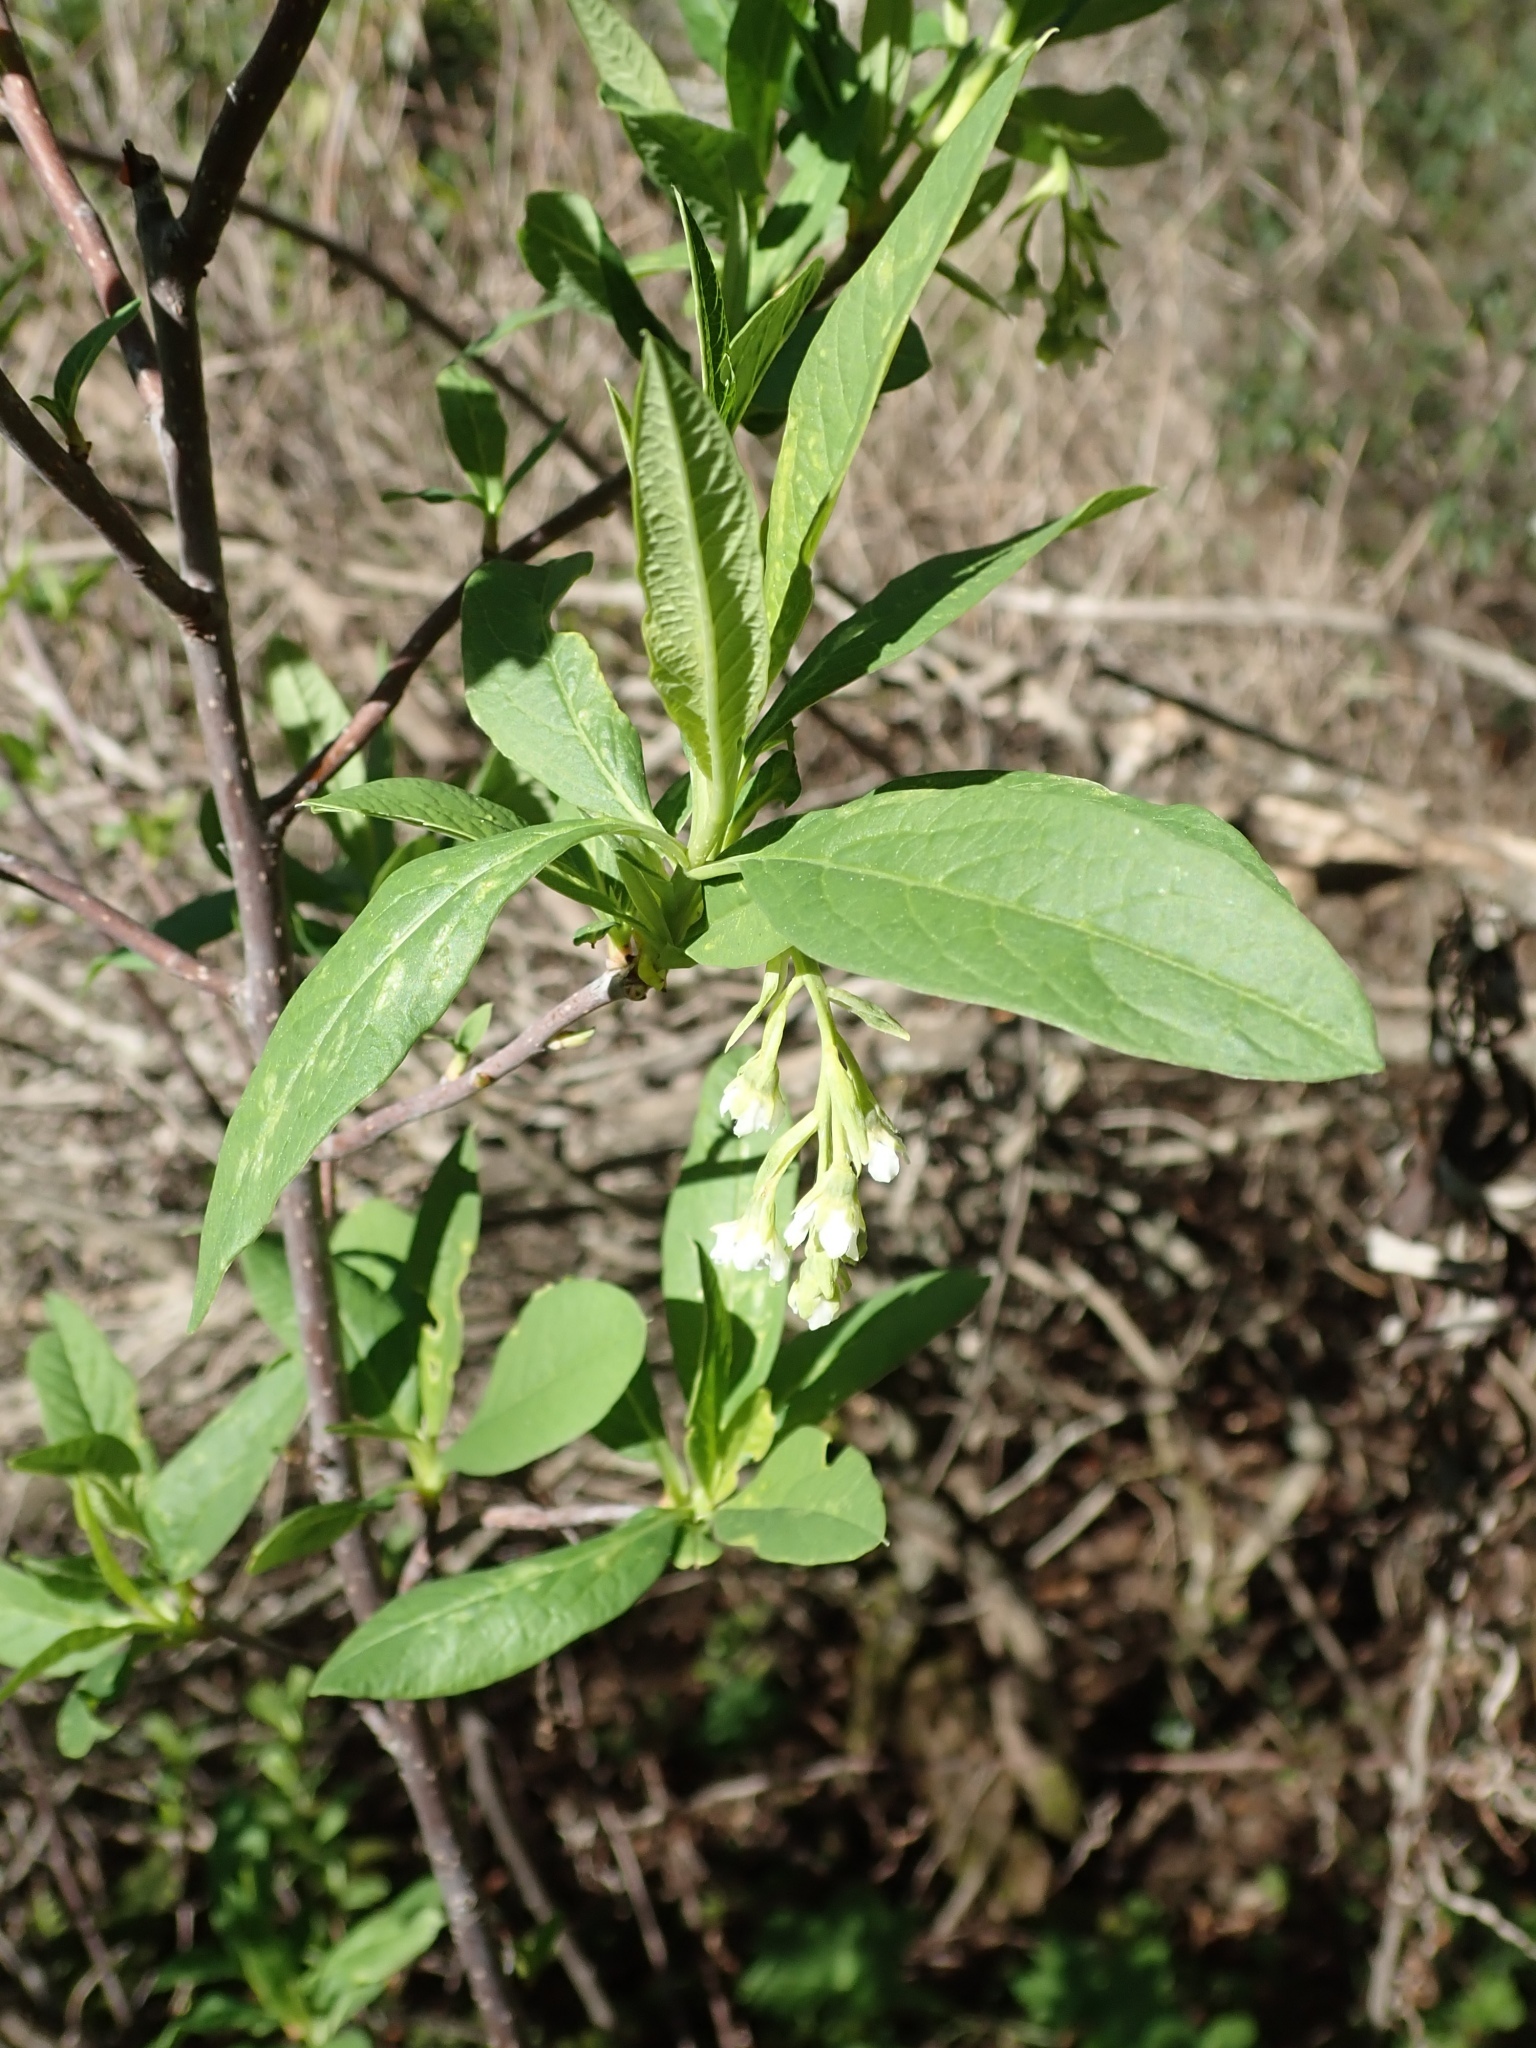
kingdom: Plantae
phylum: Tracheophyta
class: Magnoliopsida
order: Rosales
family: Rosaceae
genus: Oemleria
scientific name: Oemleria cerasiformis
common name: Osoberry
